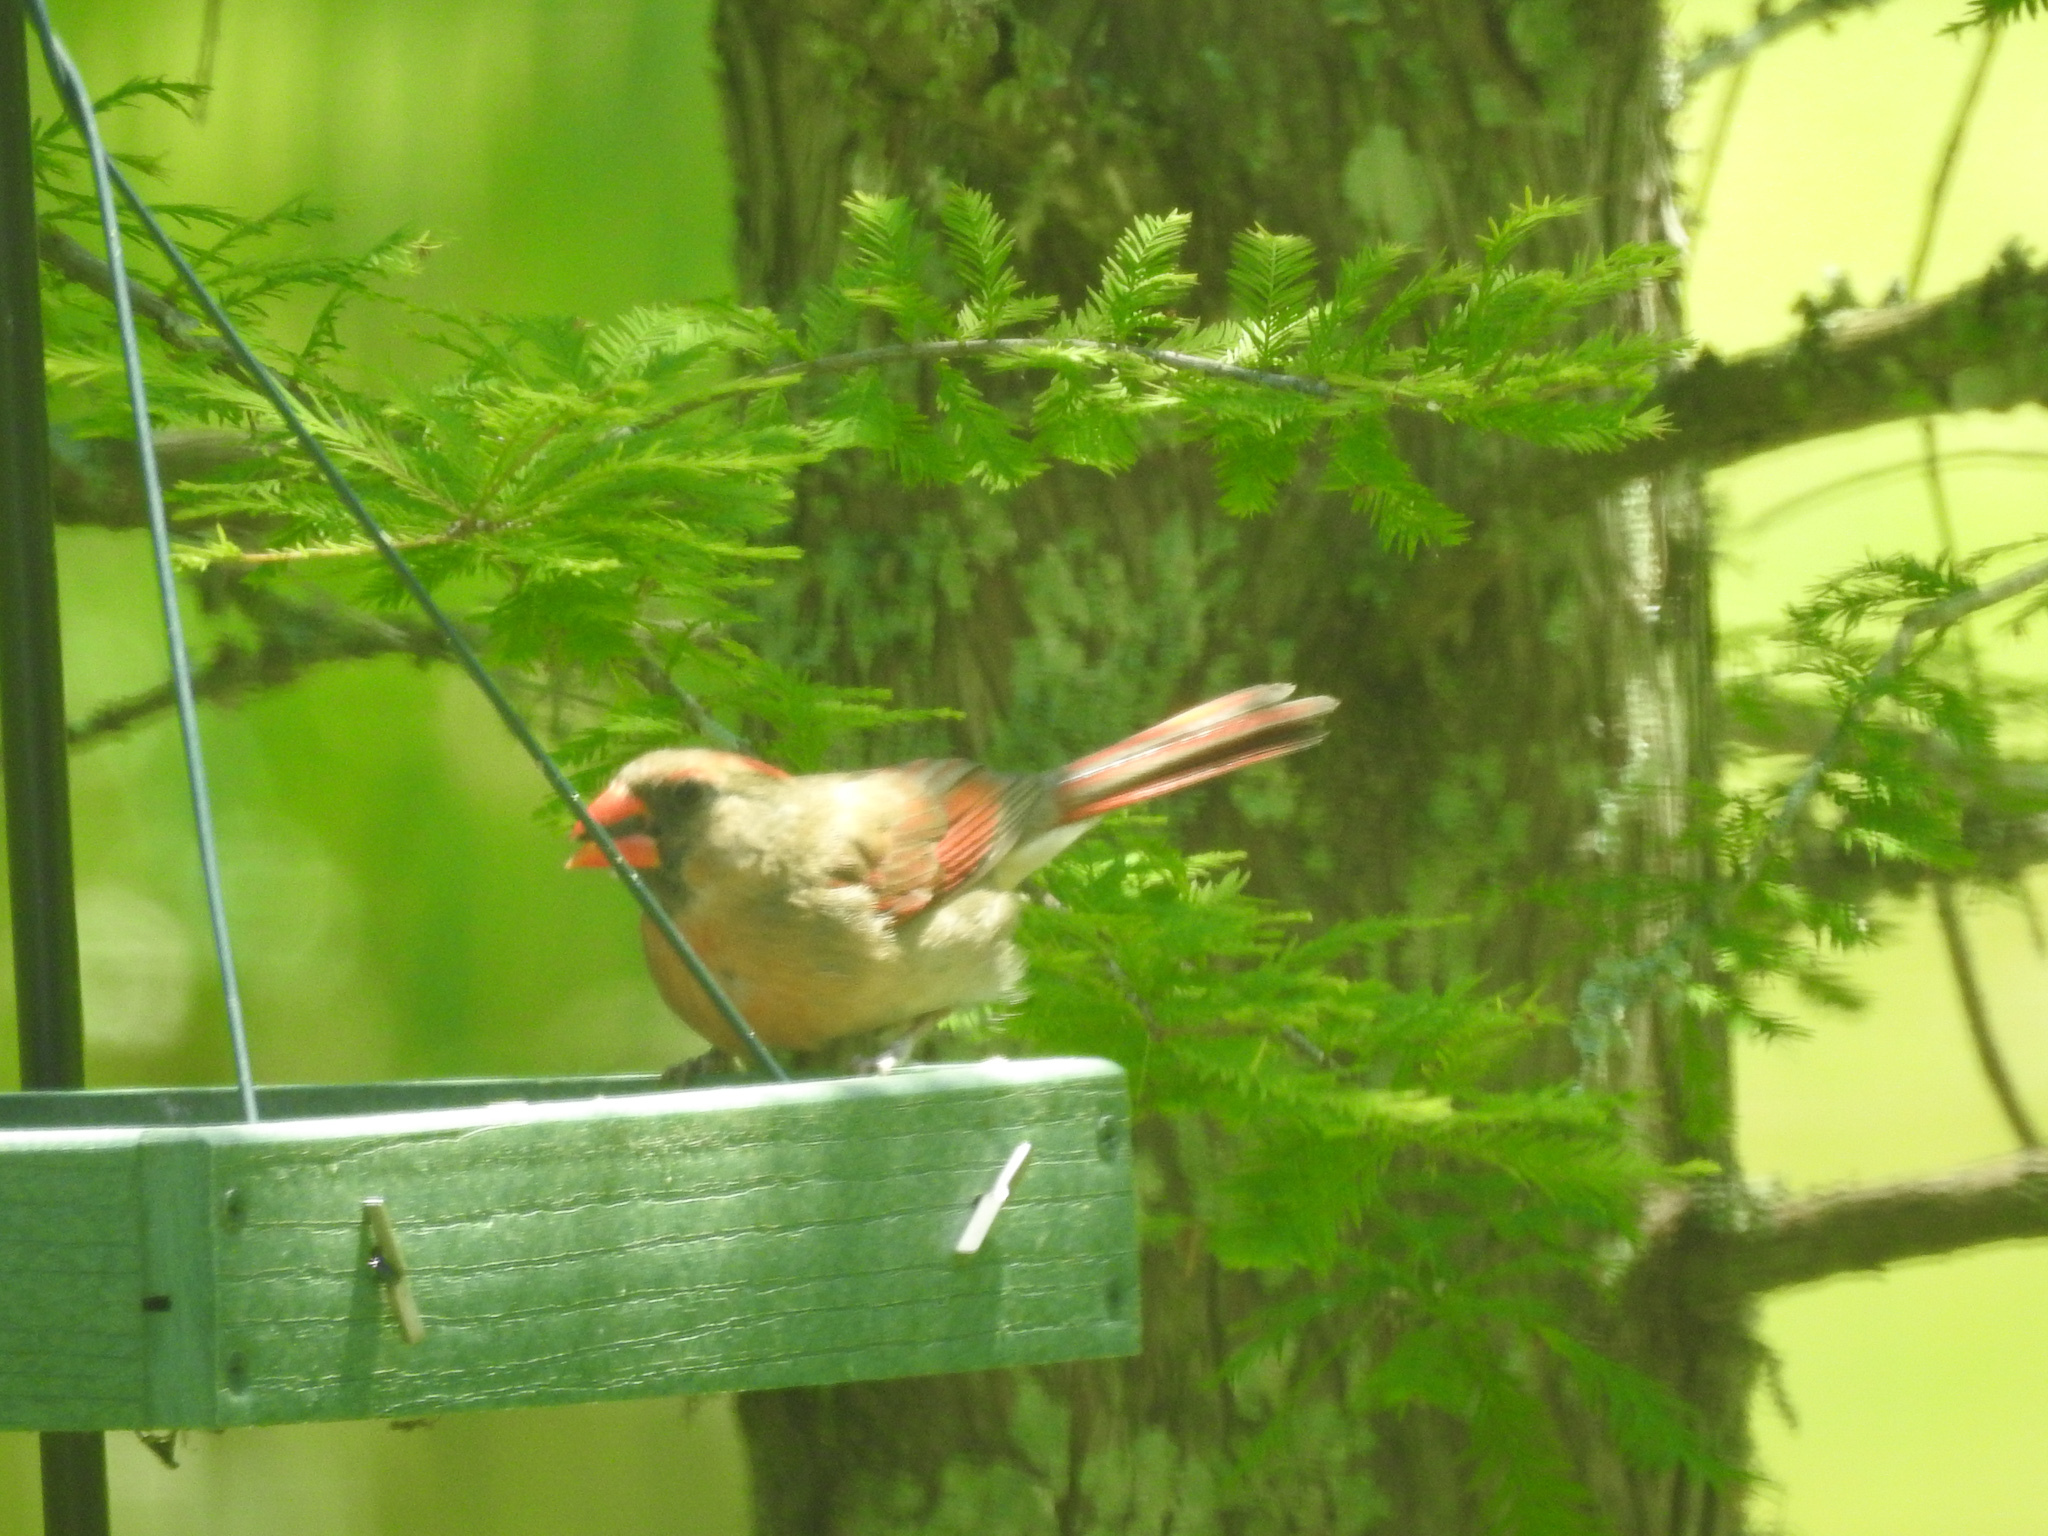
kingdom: Animalia
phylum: Chordata
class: Aves
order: Passeriformes
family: Cardinalidae
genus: Cardinalis
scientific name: Cardinalis cardinalis
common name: Northern cardinal
